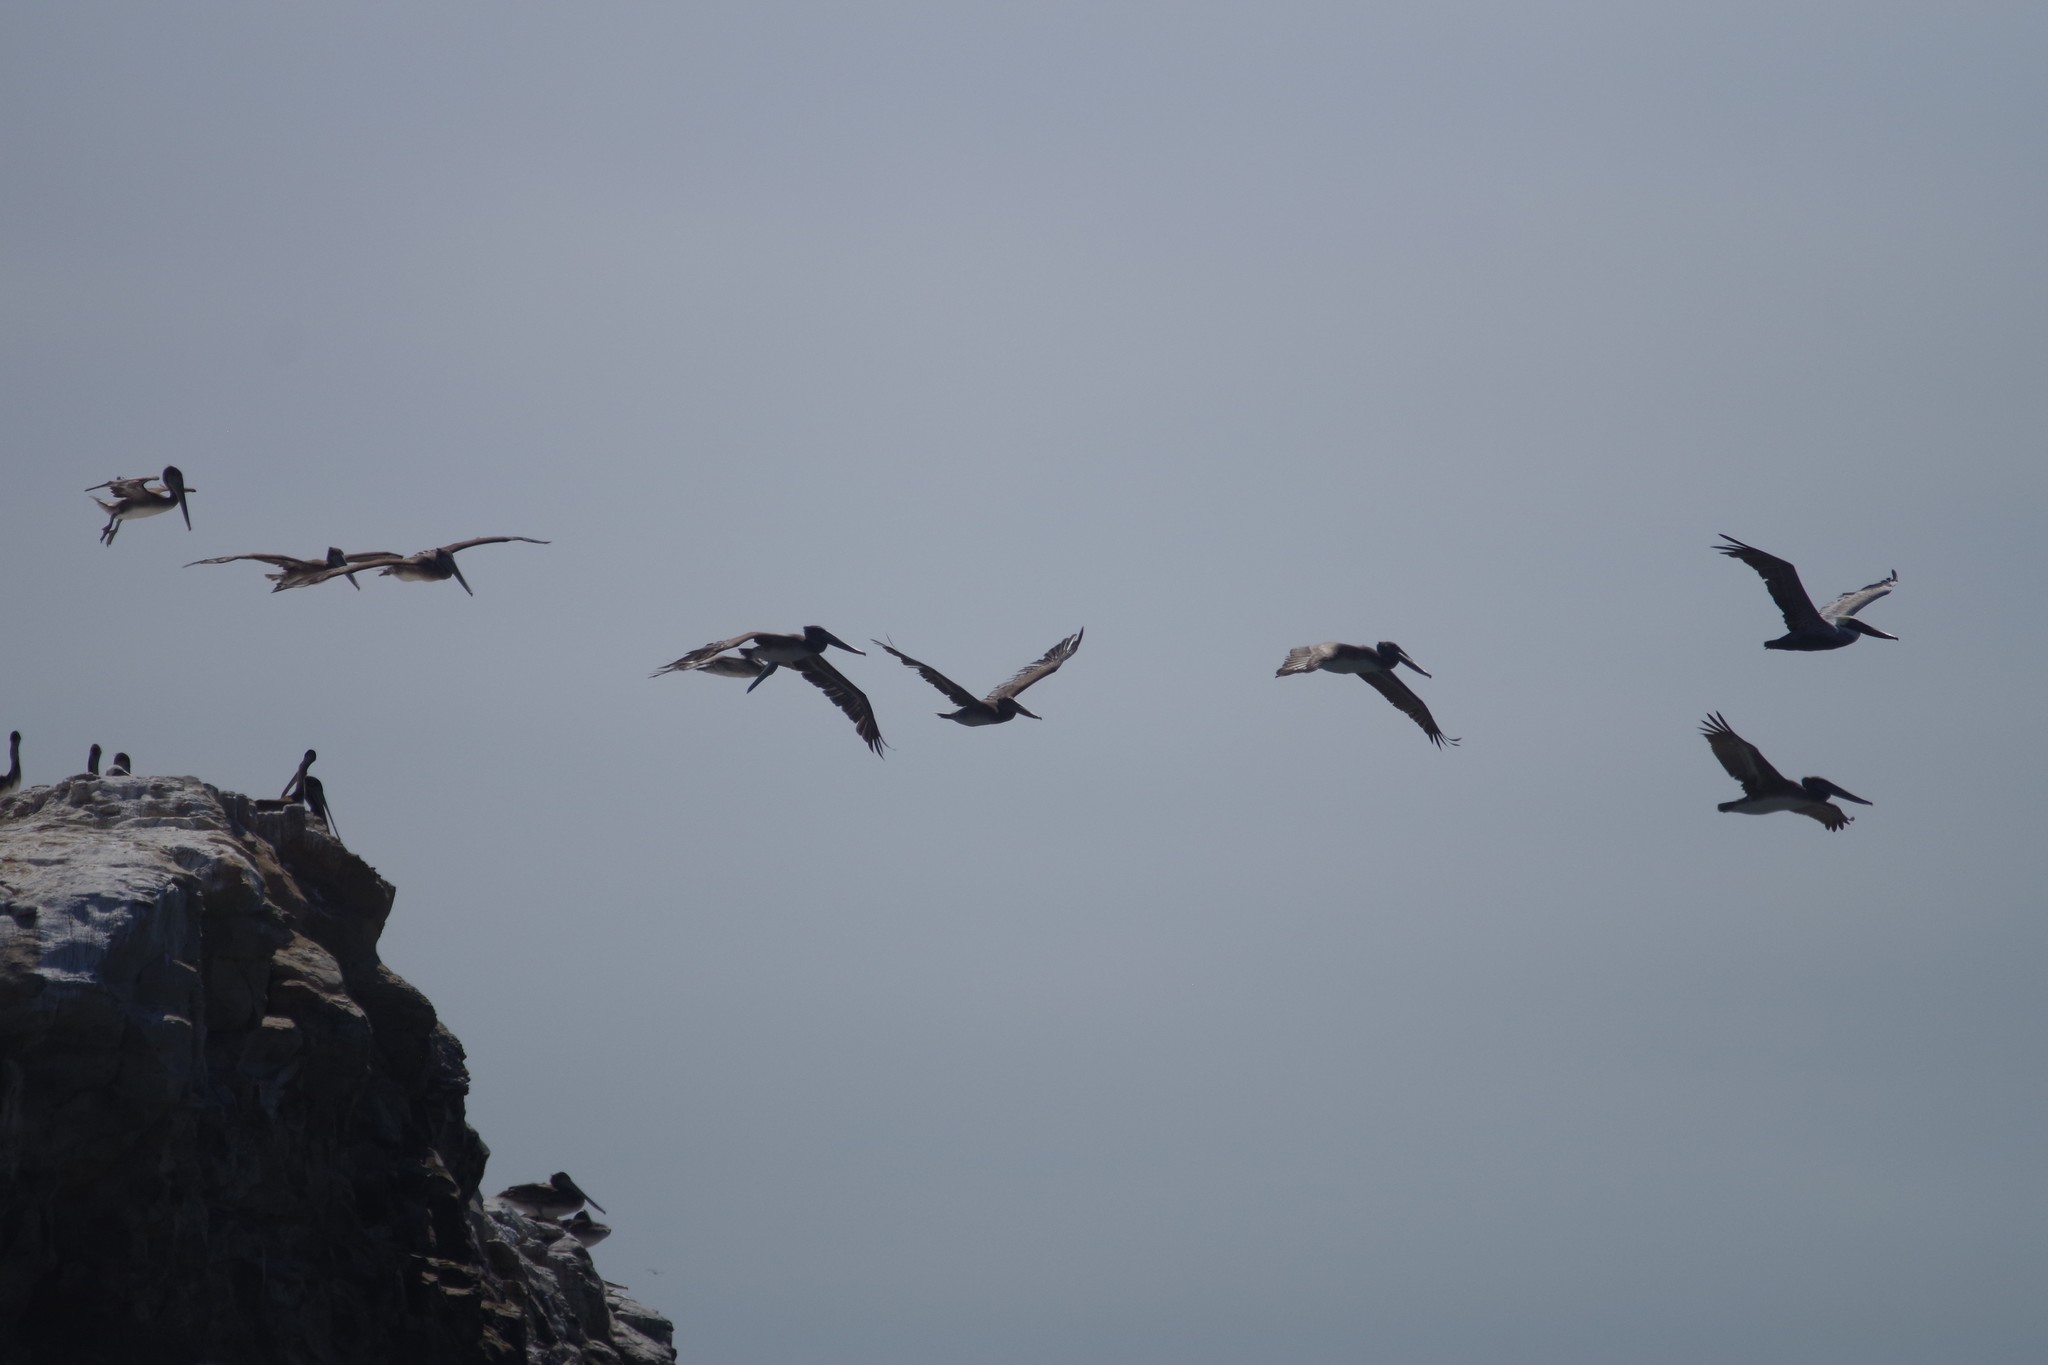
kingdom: Animalia
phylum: Chordata
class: Aves
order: Pelecaniformes
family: Pelecanidae
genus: Pelecanus
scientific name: Pelecanus occidentalis
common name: Brown pelican
